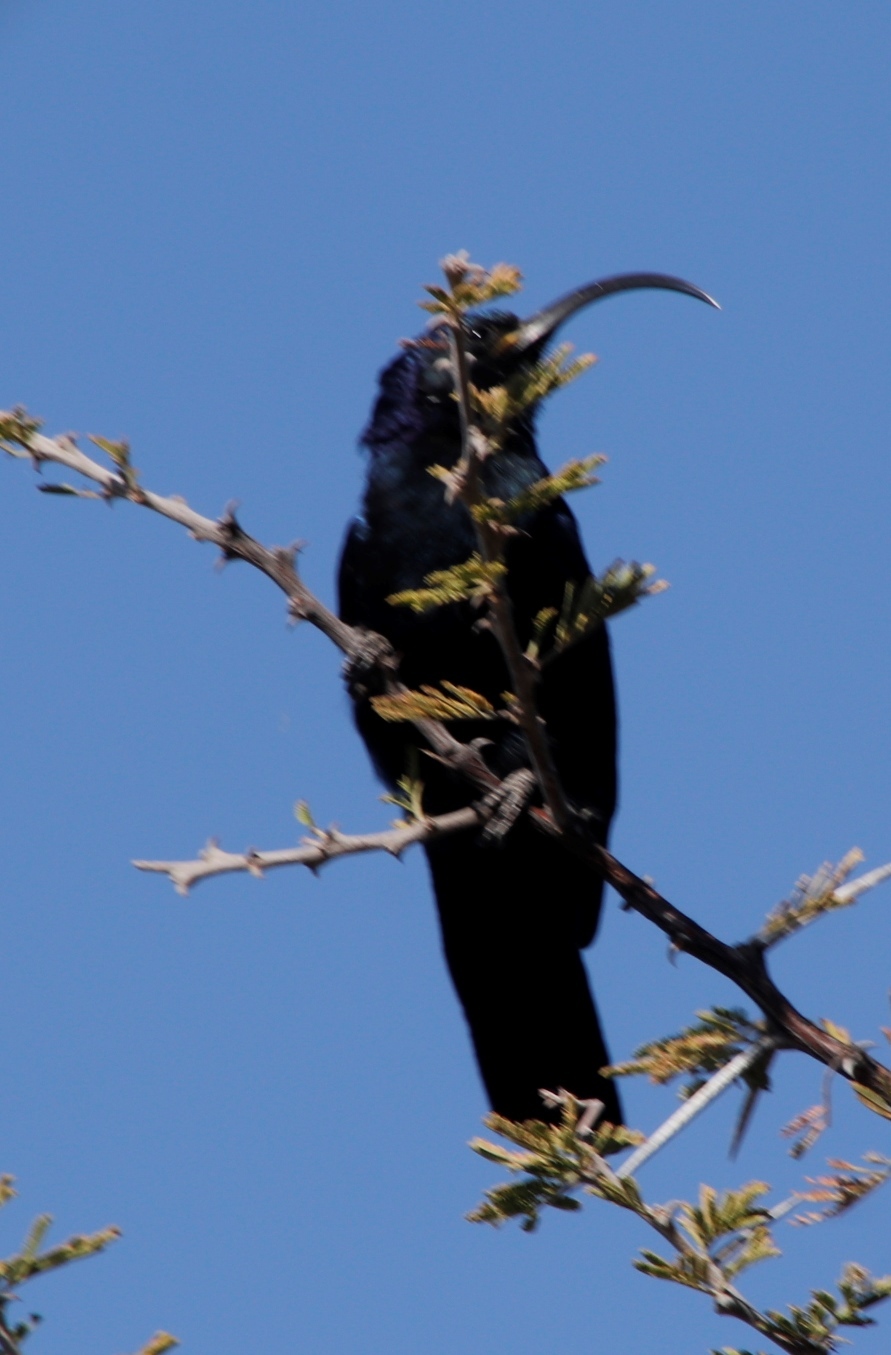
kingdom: Animalia
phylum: Chordata
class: Aves
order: Bucerotiformes
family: Phoeniculidae
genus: Rhinopomastus
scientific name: Rhinopomastus cyanomelas
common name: Common scimitarbill
